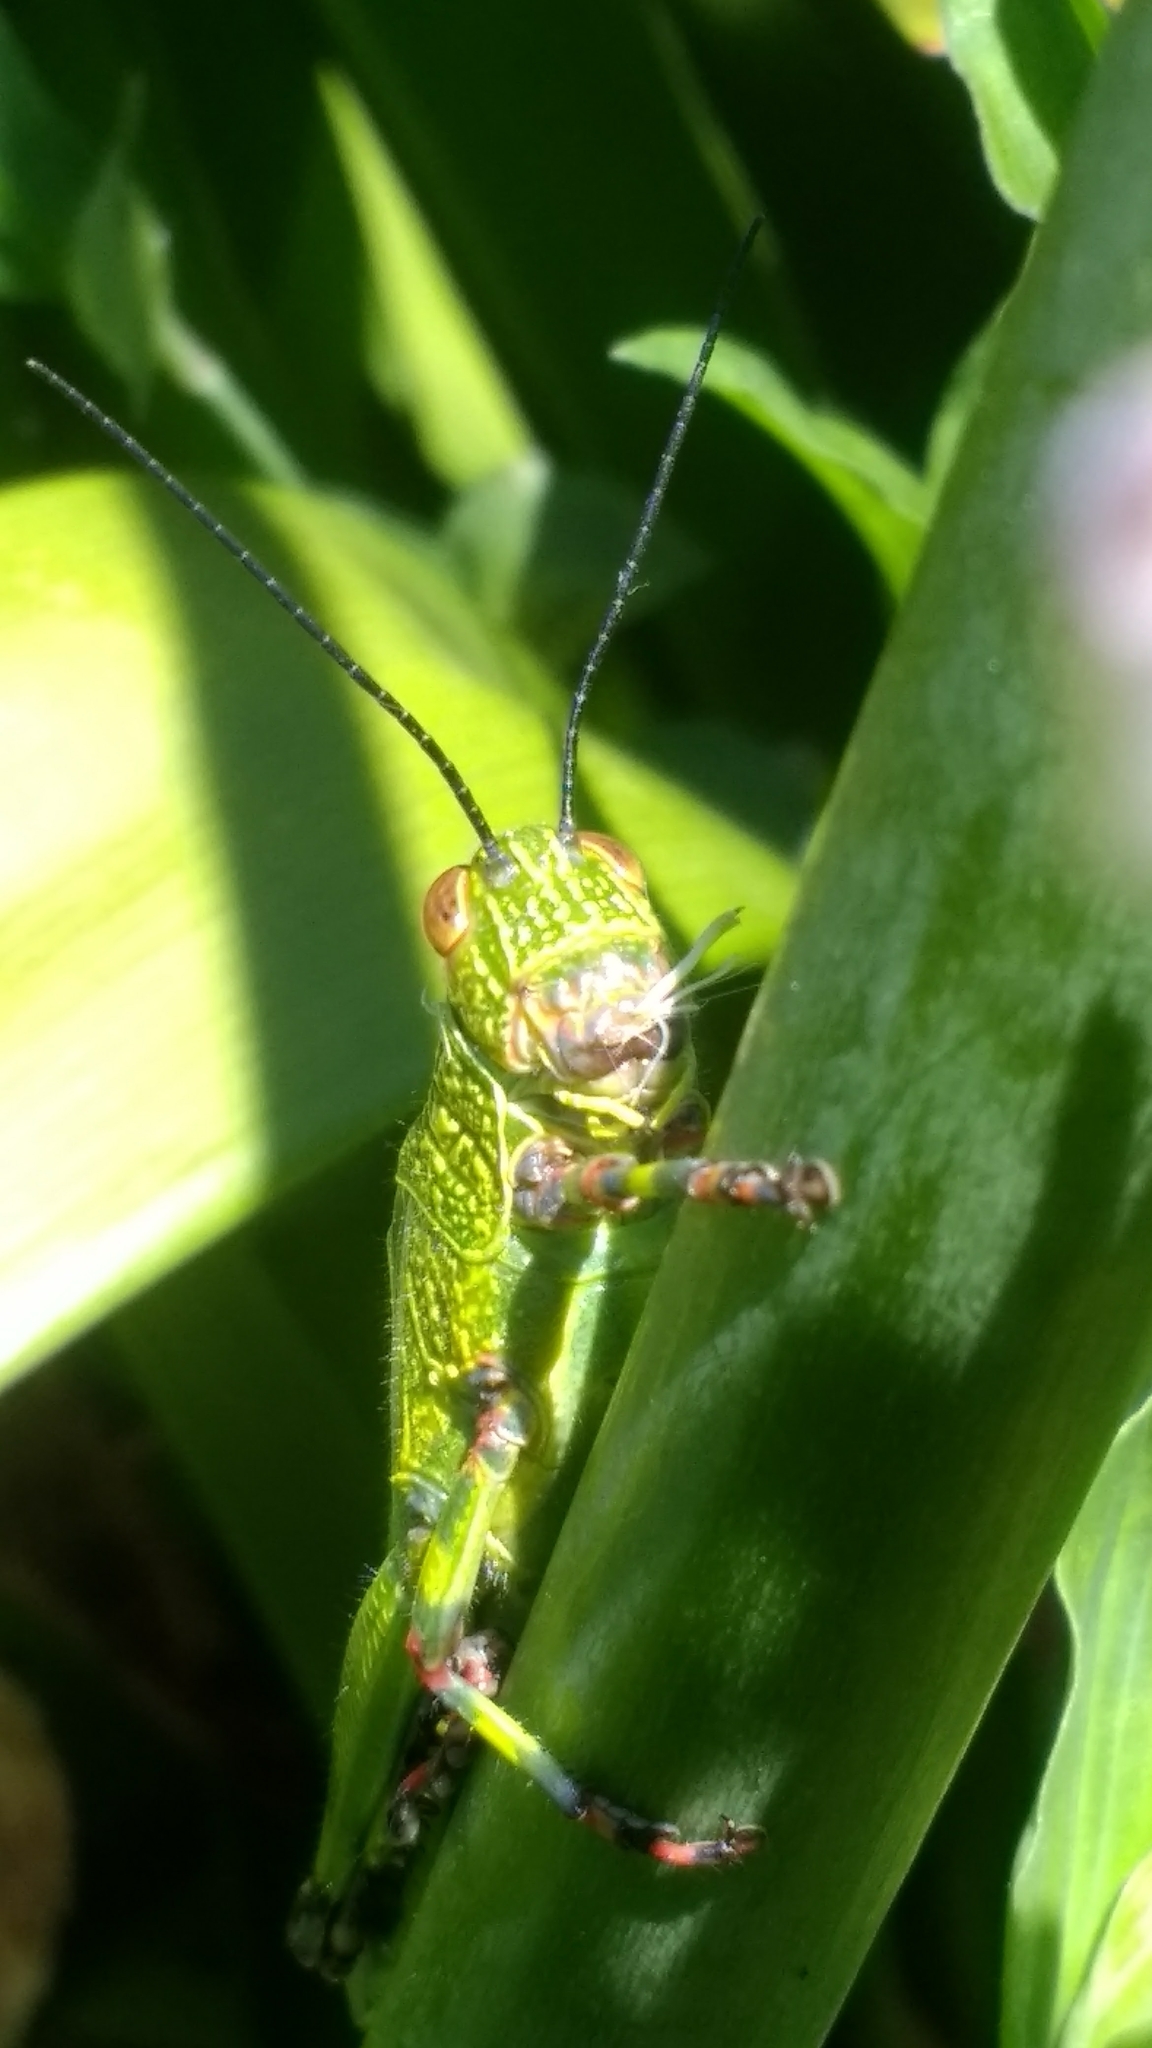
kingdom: Animalia
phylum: Arthropoda
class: Insecta
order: Orthoptera
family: Romaleidae
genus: Zoniopoda
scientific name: Zoniopoda tarsata
